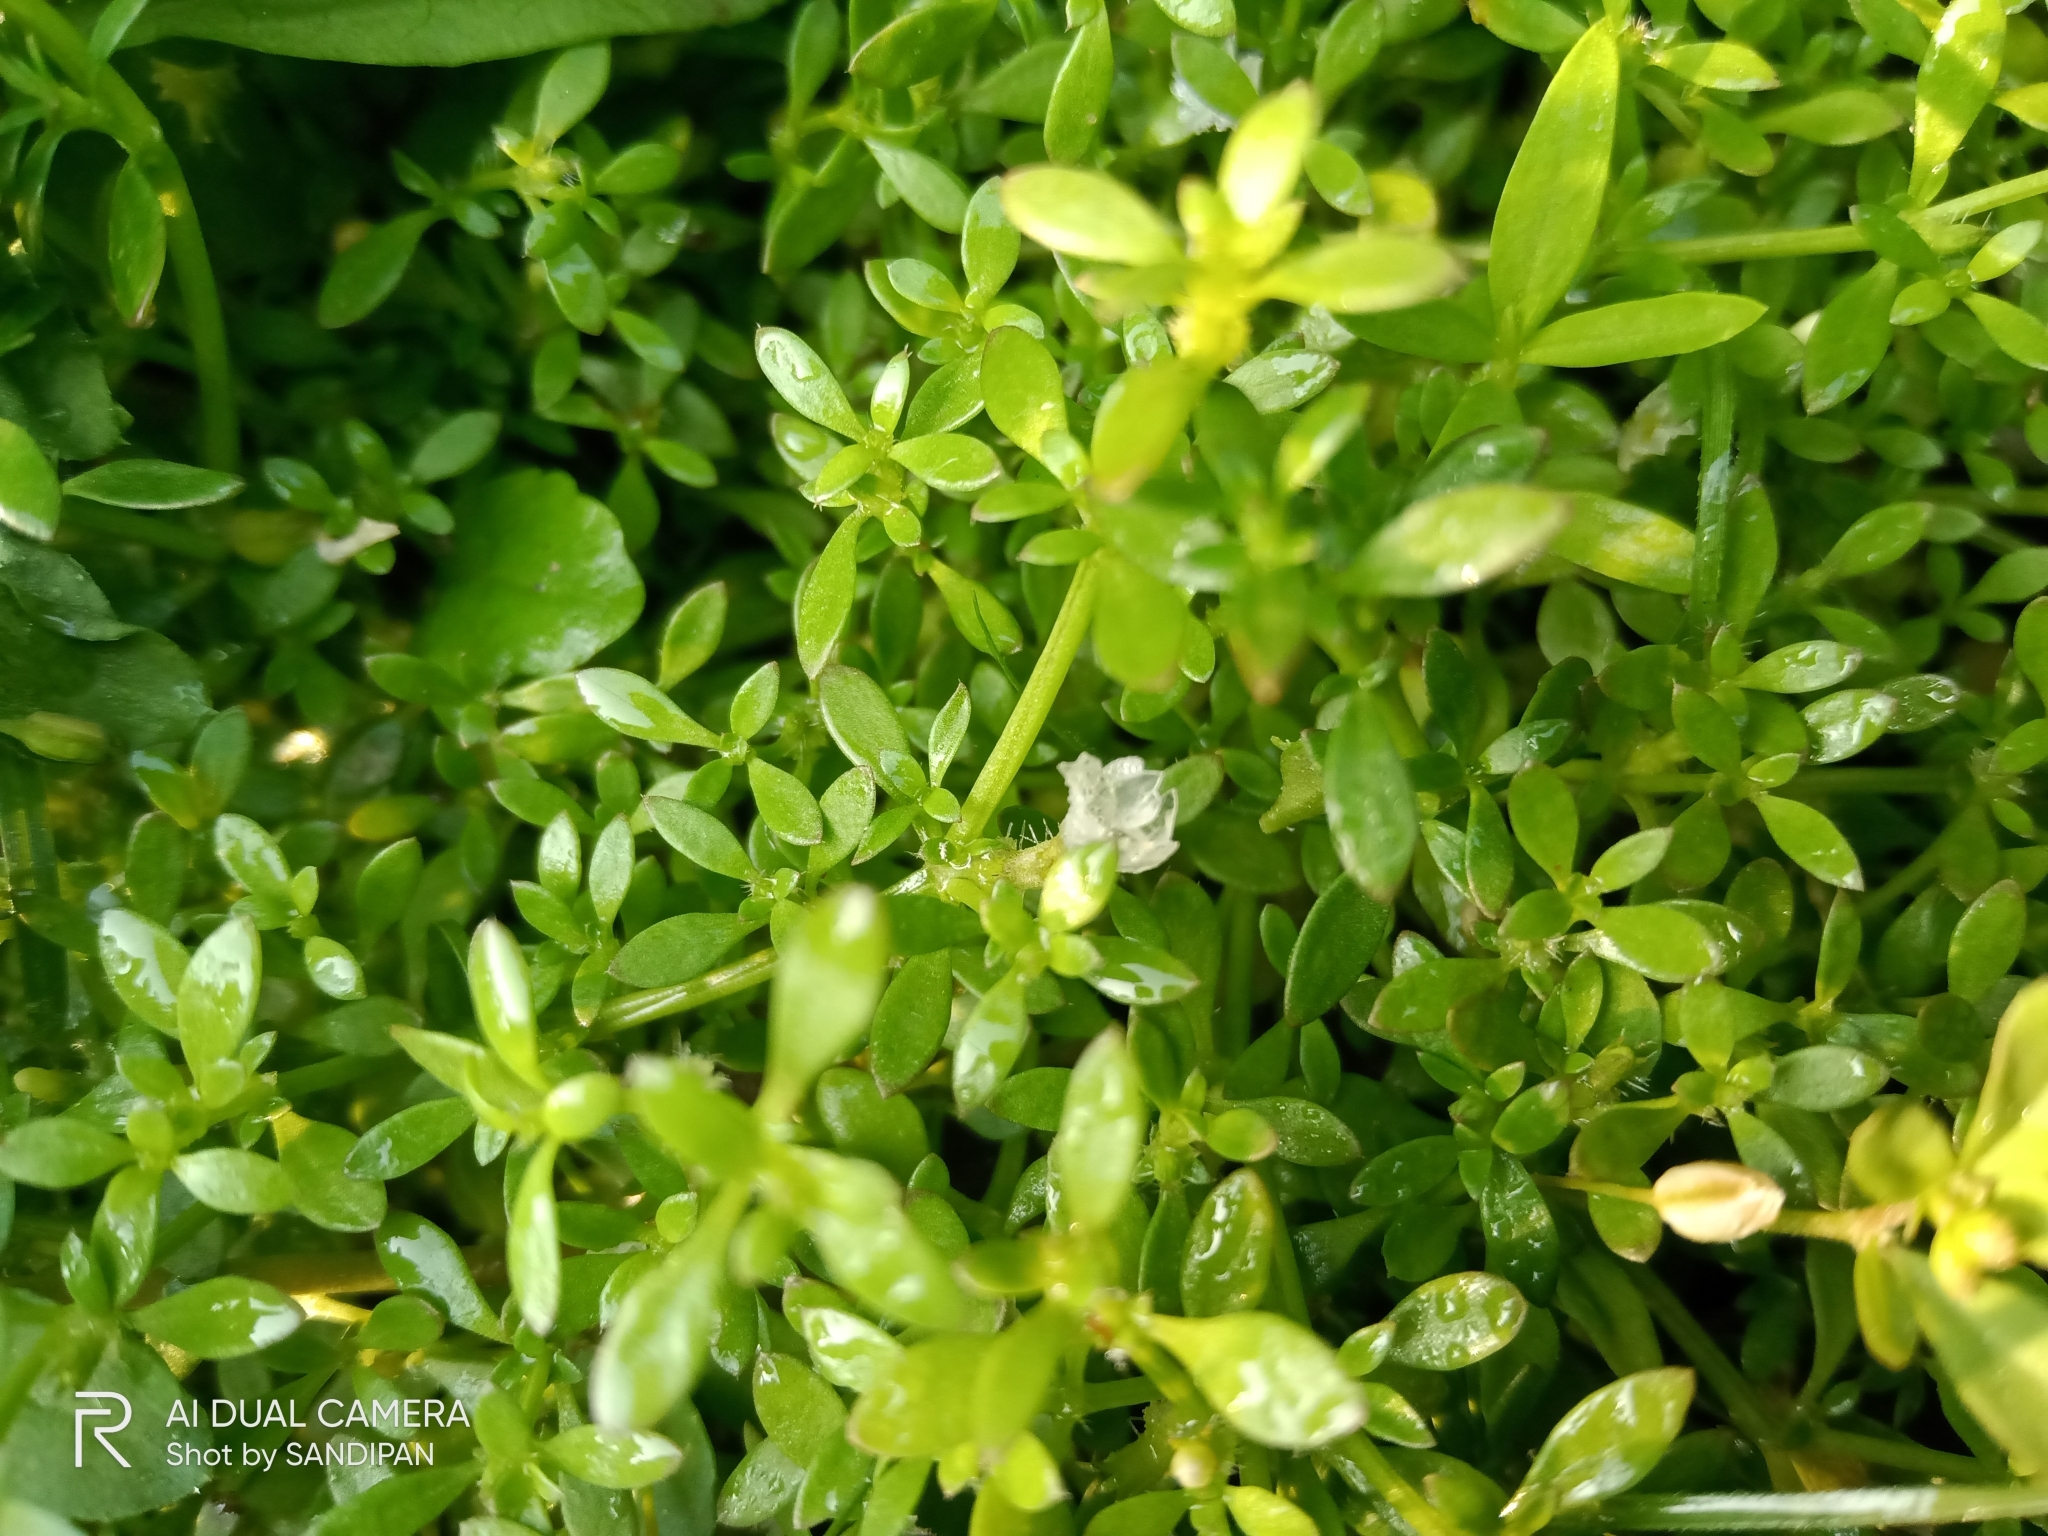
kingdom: Plantae
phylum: Tracheophyta
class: Magnoliopsida
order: Gentianales
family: Rubiaceae
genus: Dentella
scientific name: Dentella repens
